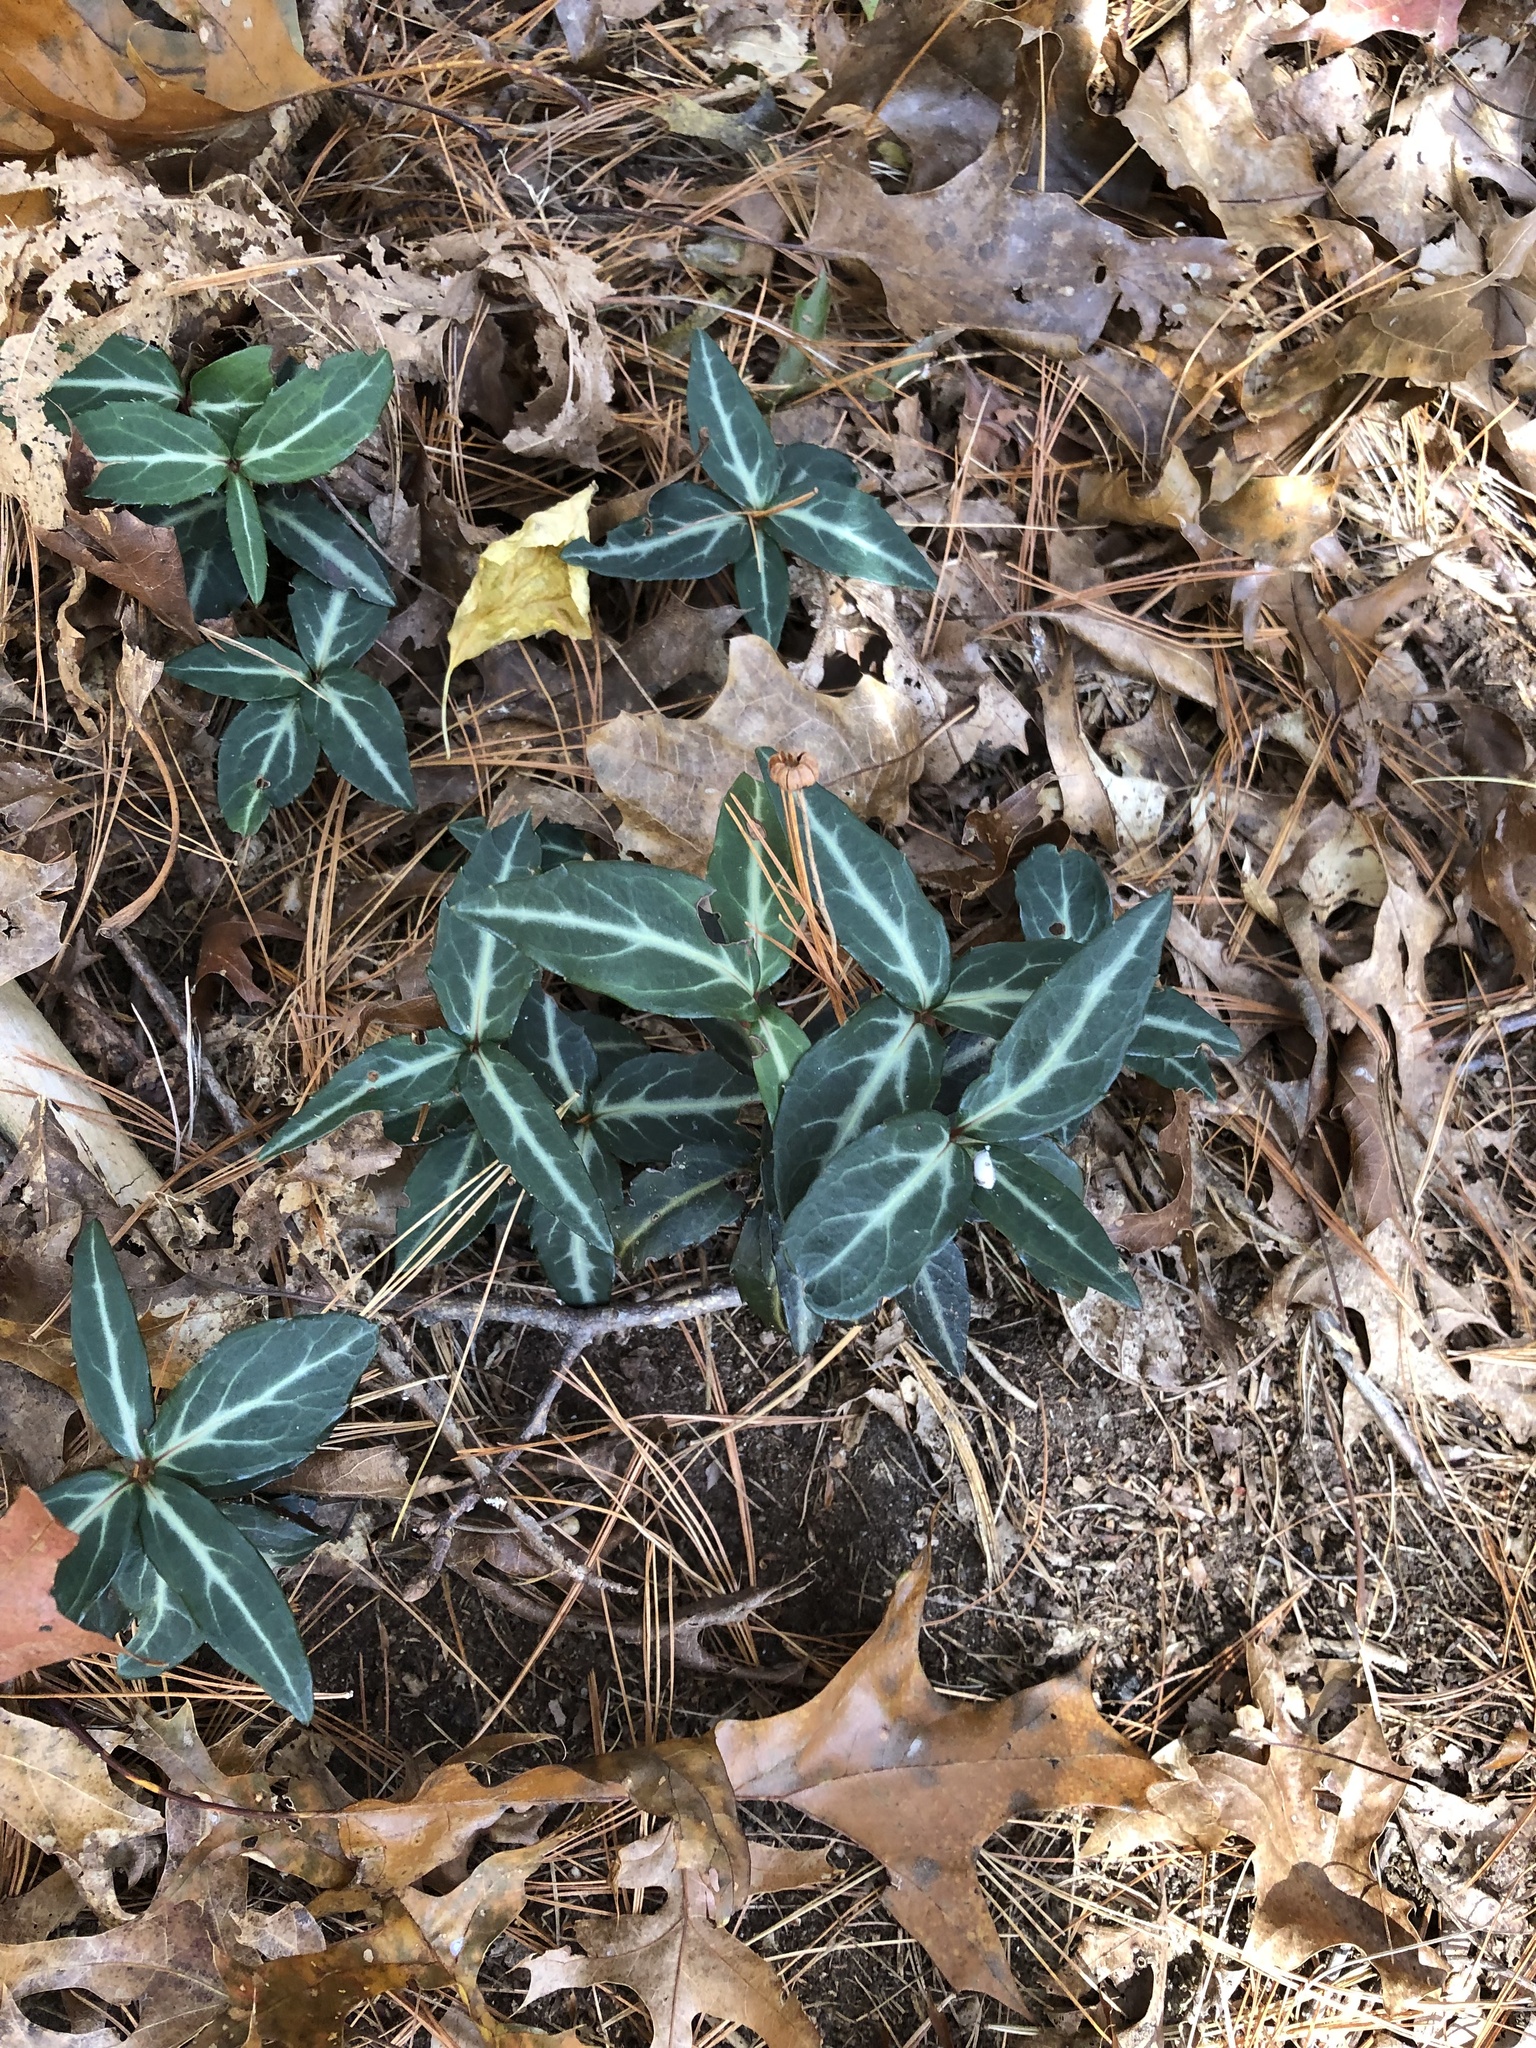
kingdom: Plantae
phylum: Tracheophyta
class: Magnoliopsida
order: Ericales
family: Ericaceae
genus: Chimaphila
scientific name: Chimaphila maculata
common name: Spotted pipsissewa
